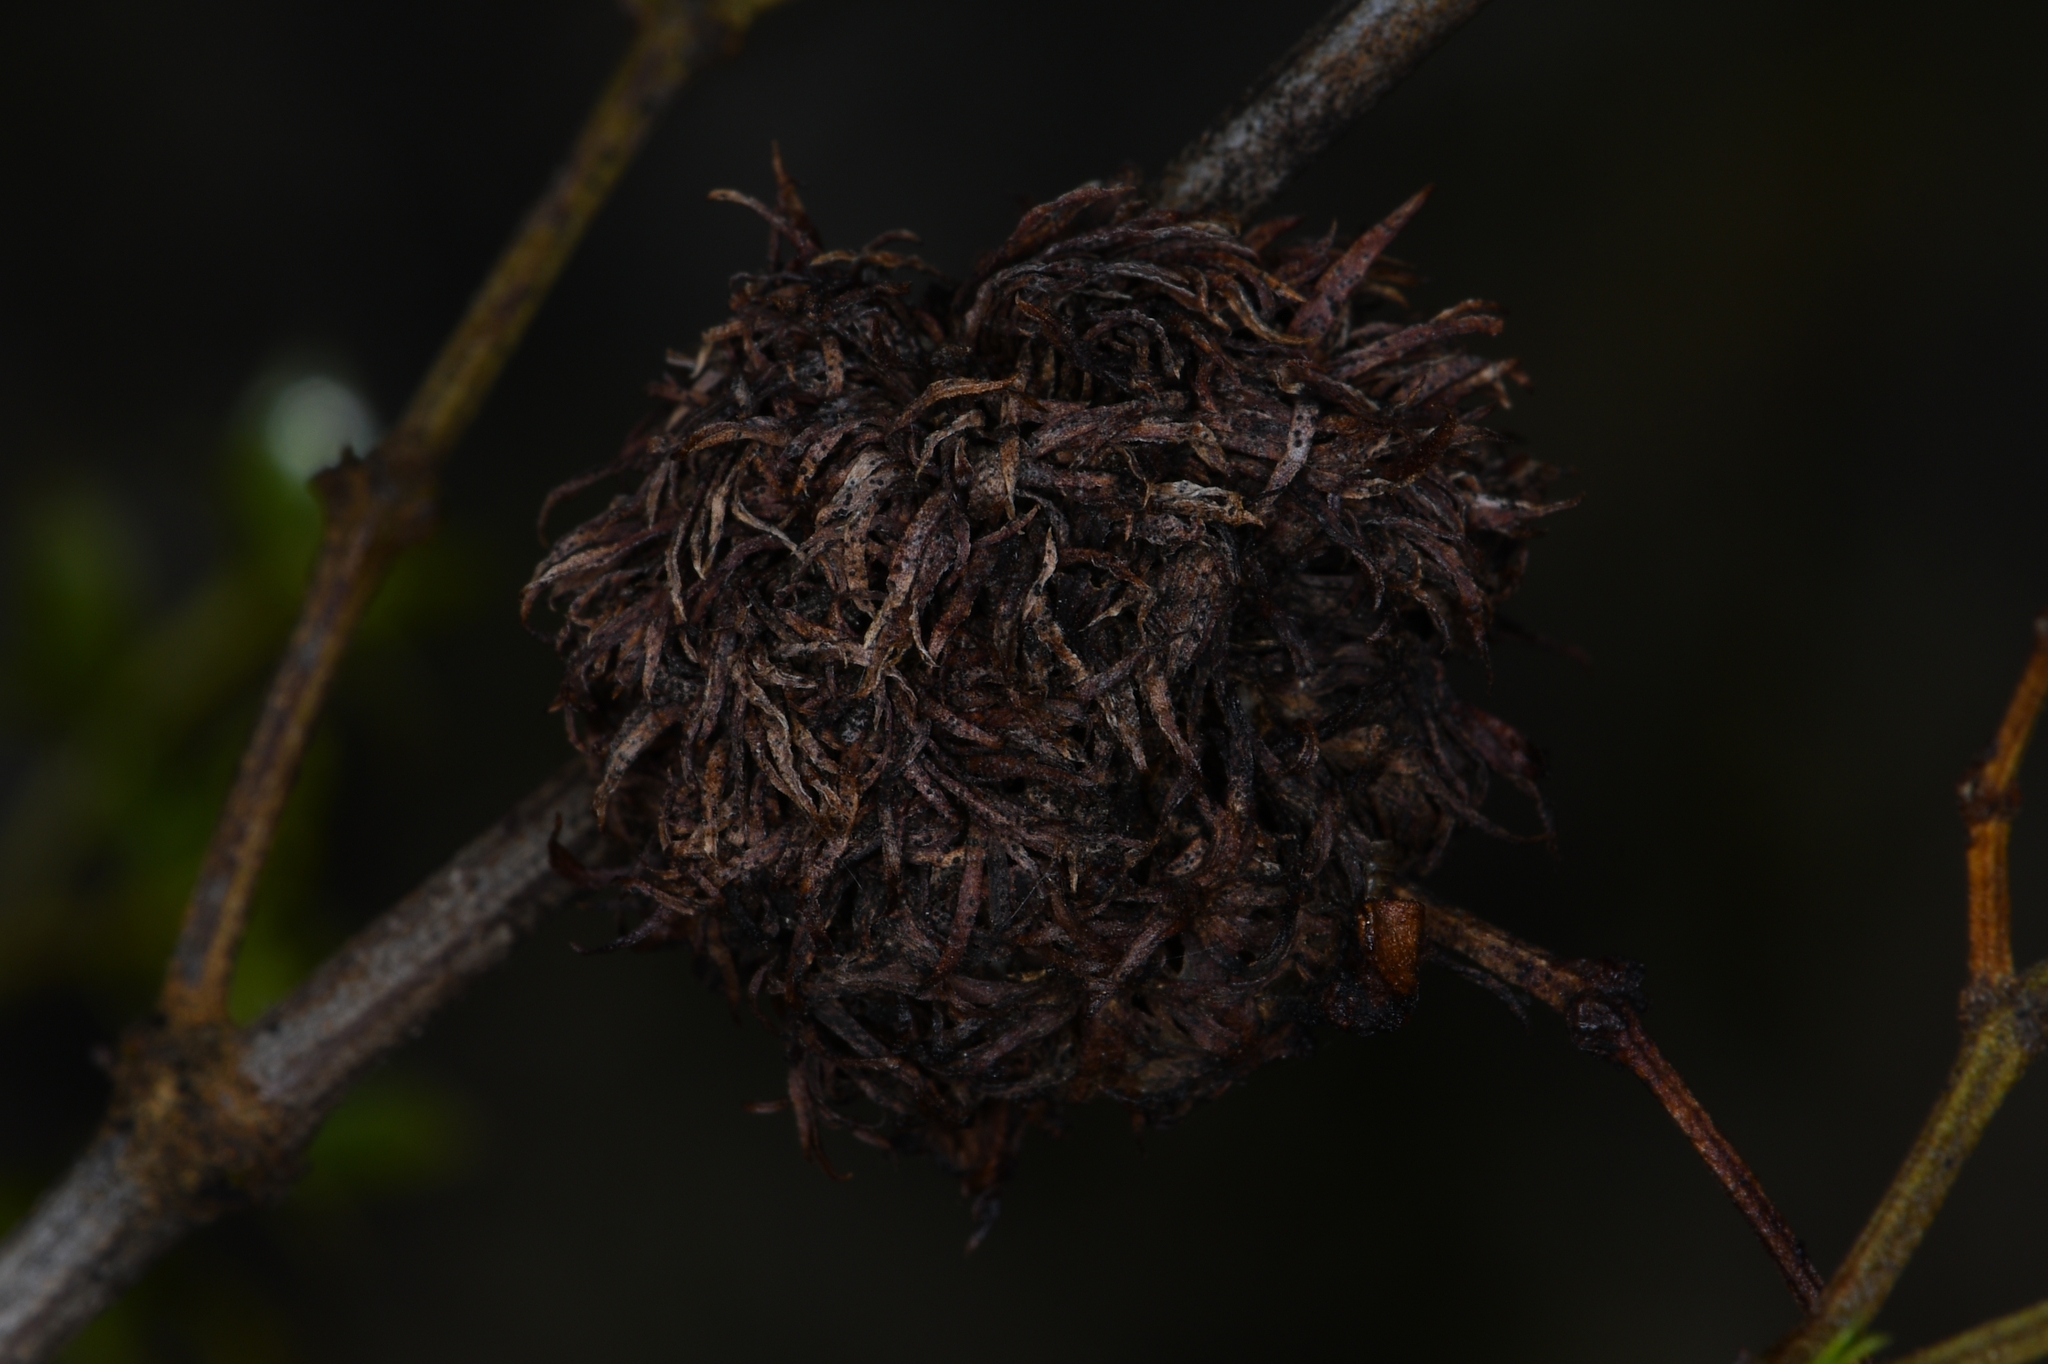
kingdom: Animalia
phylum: Arthropoda
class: Insecta
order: Diptera
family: Cecidomyiidae
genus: Asphondylia
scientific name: Asphondylia auripila
